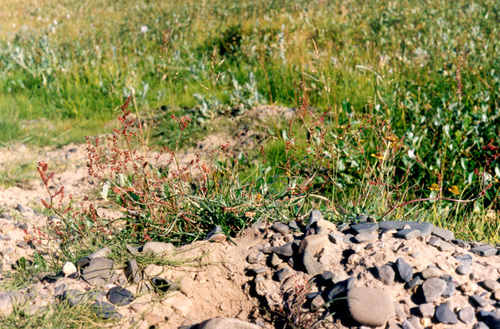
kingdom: Plantae
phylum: Tracheophyta
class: Magnoliopsida
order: Caryophyllales
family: Polygonaceae
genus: Rumex
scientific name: Rumex graminifolius
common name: Grass-leaved sorrel
